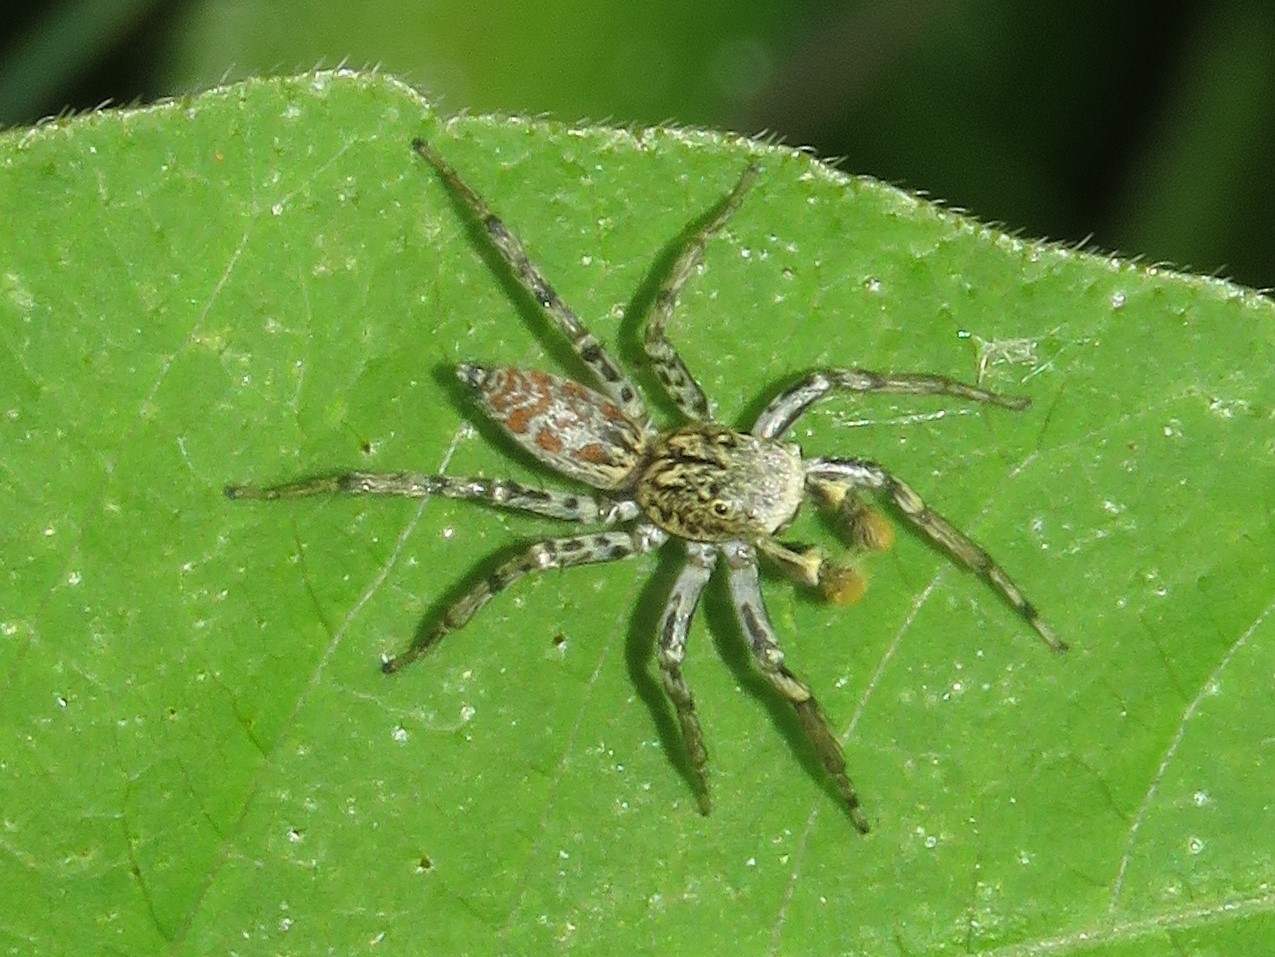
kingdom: Animalia
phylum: Arthropoda
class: Arachnida
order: Araneae
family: Salticidae
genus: Maevia
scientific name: Maevia inclemens
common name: Dimorphic jumper
